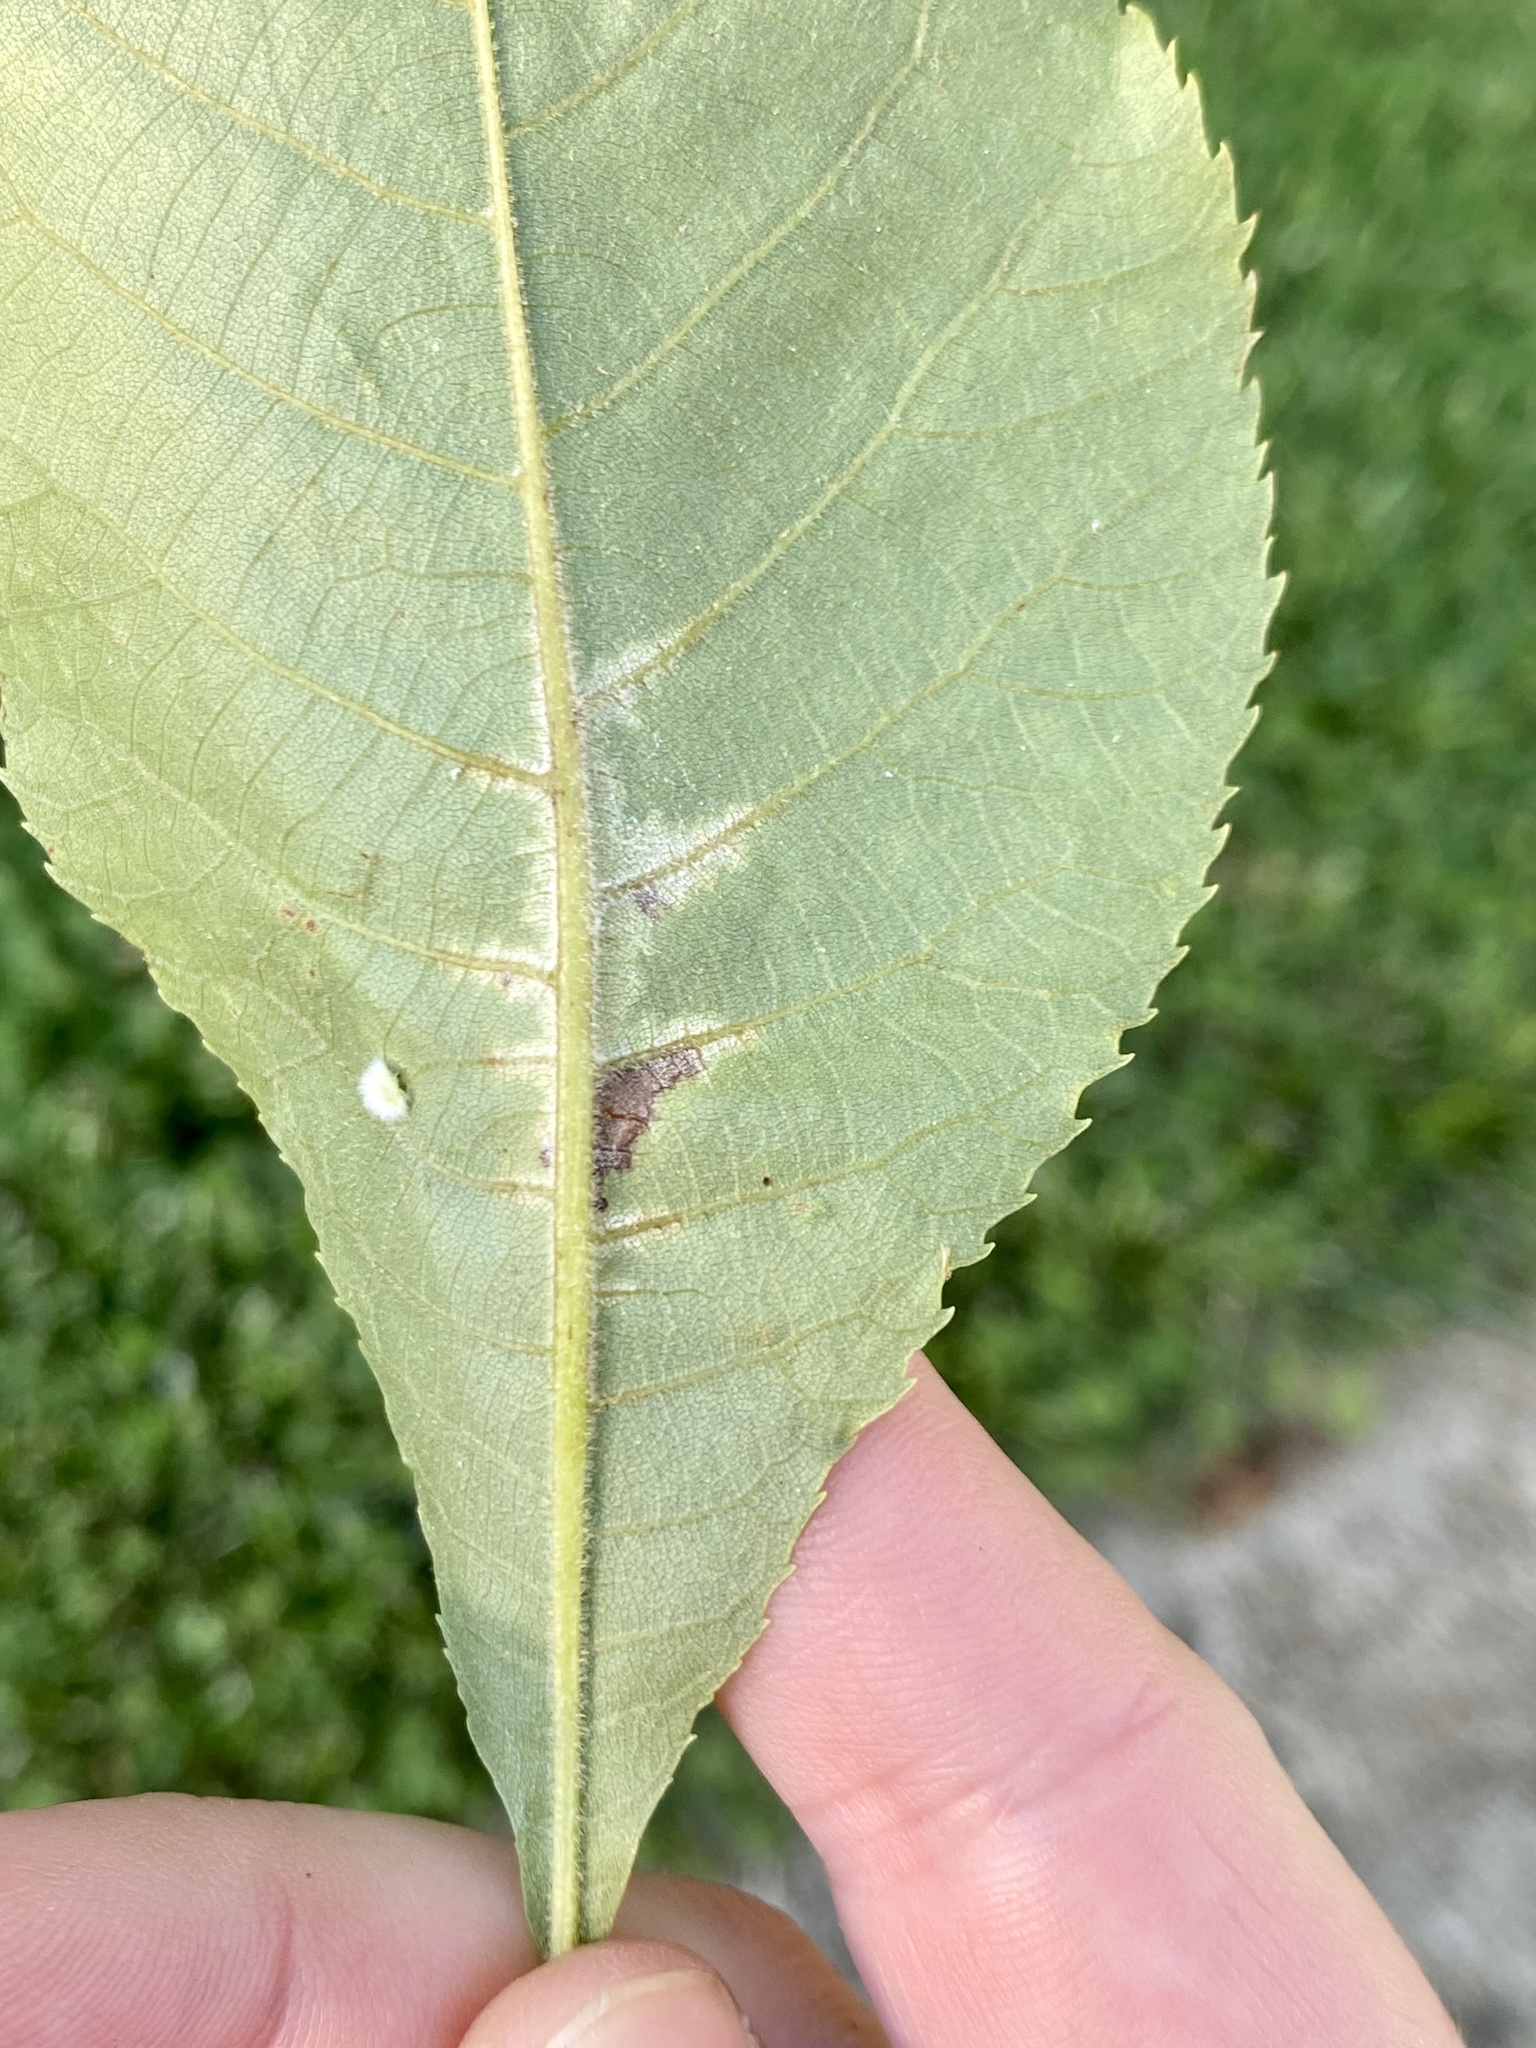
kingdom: Fungi
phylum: Basidiomycota
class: Exobasidiomycetes
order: Microstromatales
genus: Pseudomicrostroma
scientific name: Pseudomicrostroma juglandis
